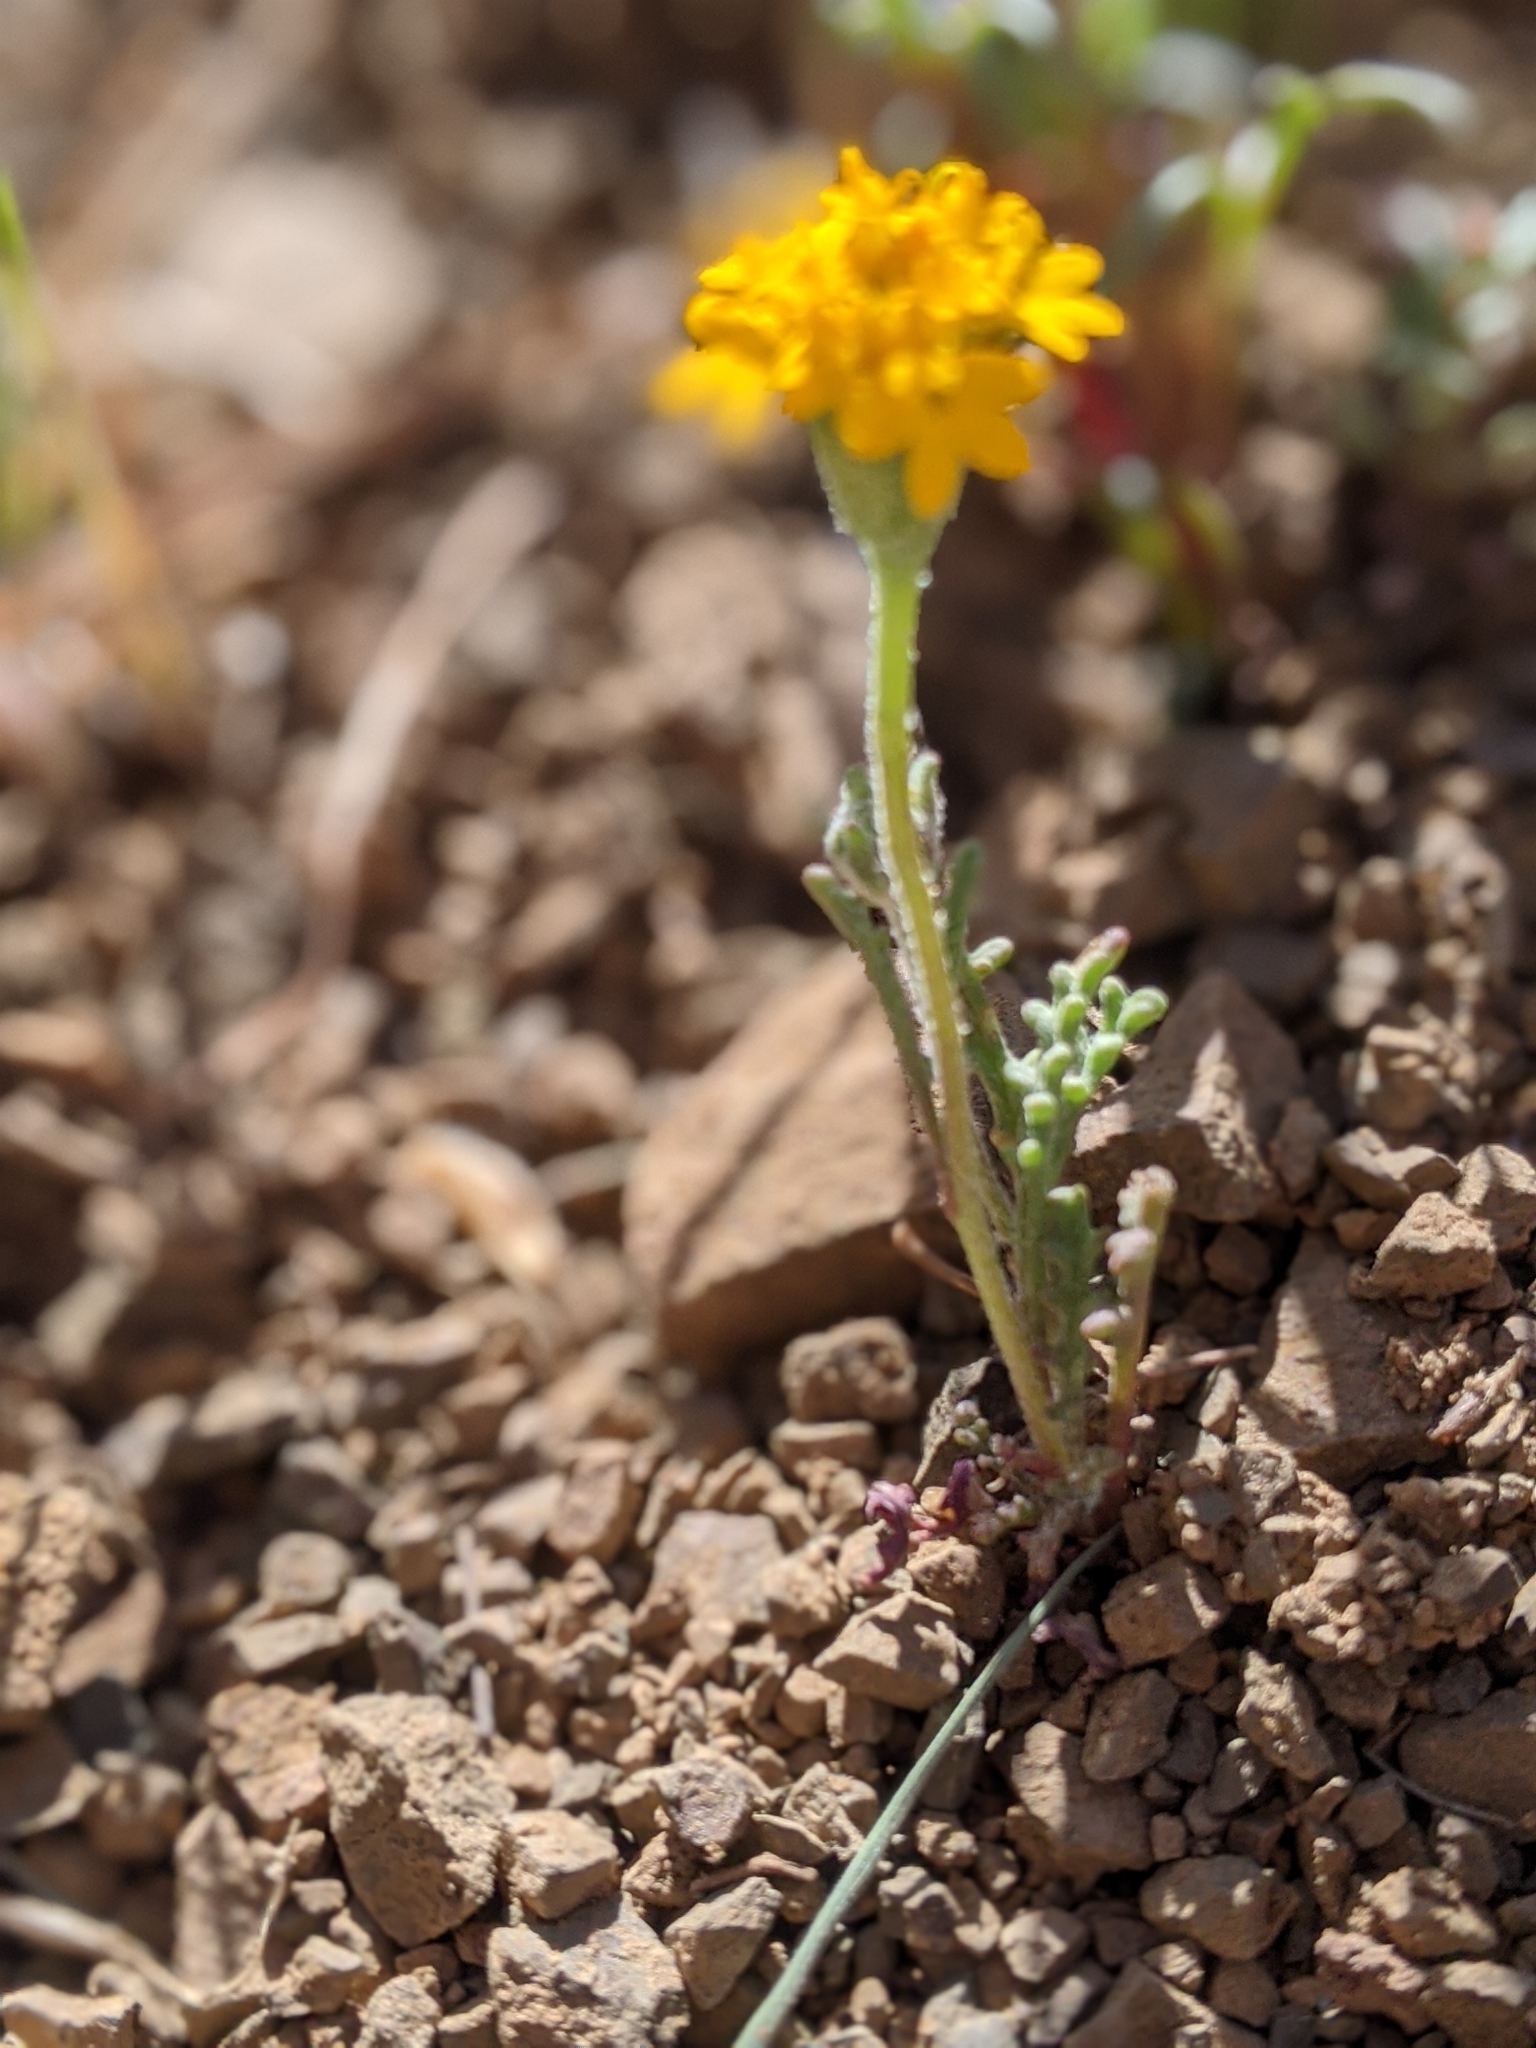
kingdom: Plantae
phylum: Tracheophyta
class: Magnoliopsida
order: Asterales
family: Asteraceae
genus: Chaenactis
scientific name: Chaenactis glabriuscula
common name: Yellow pincushion
